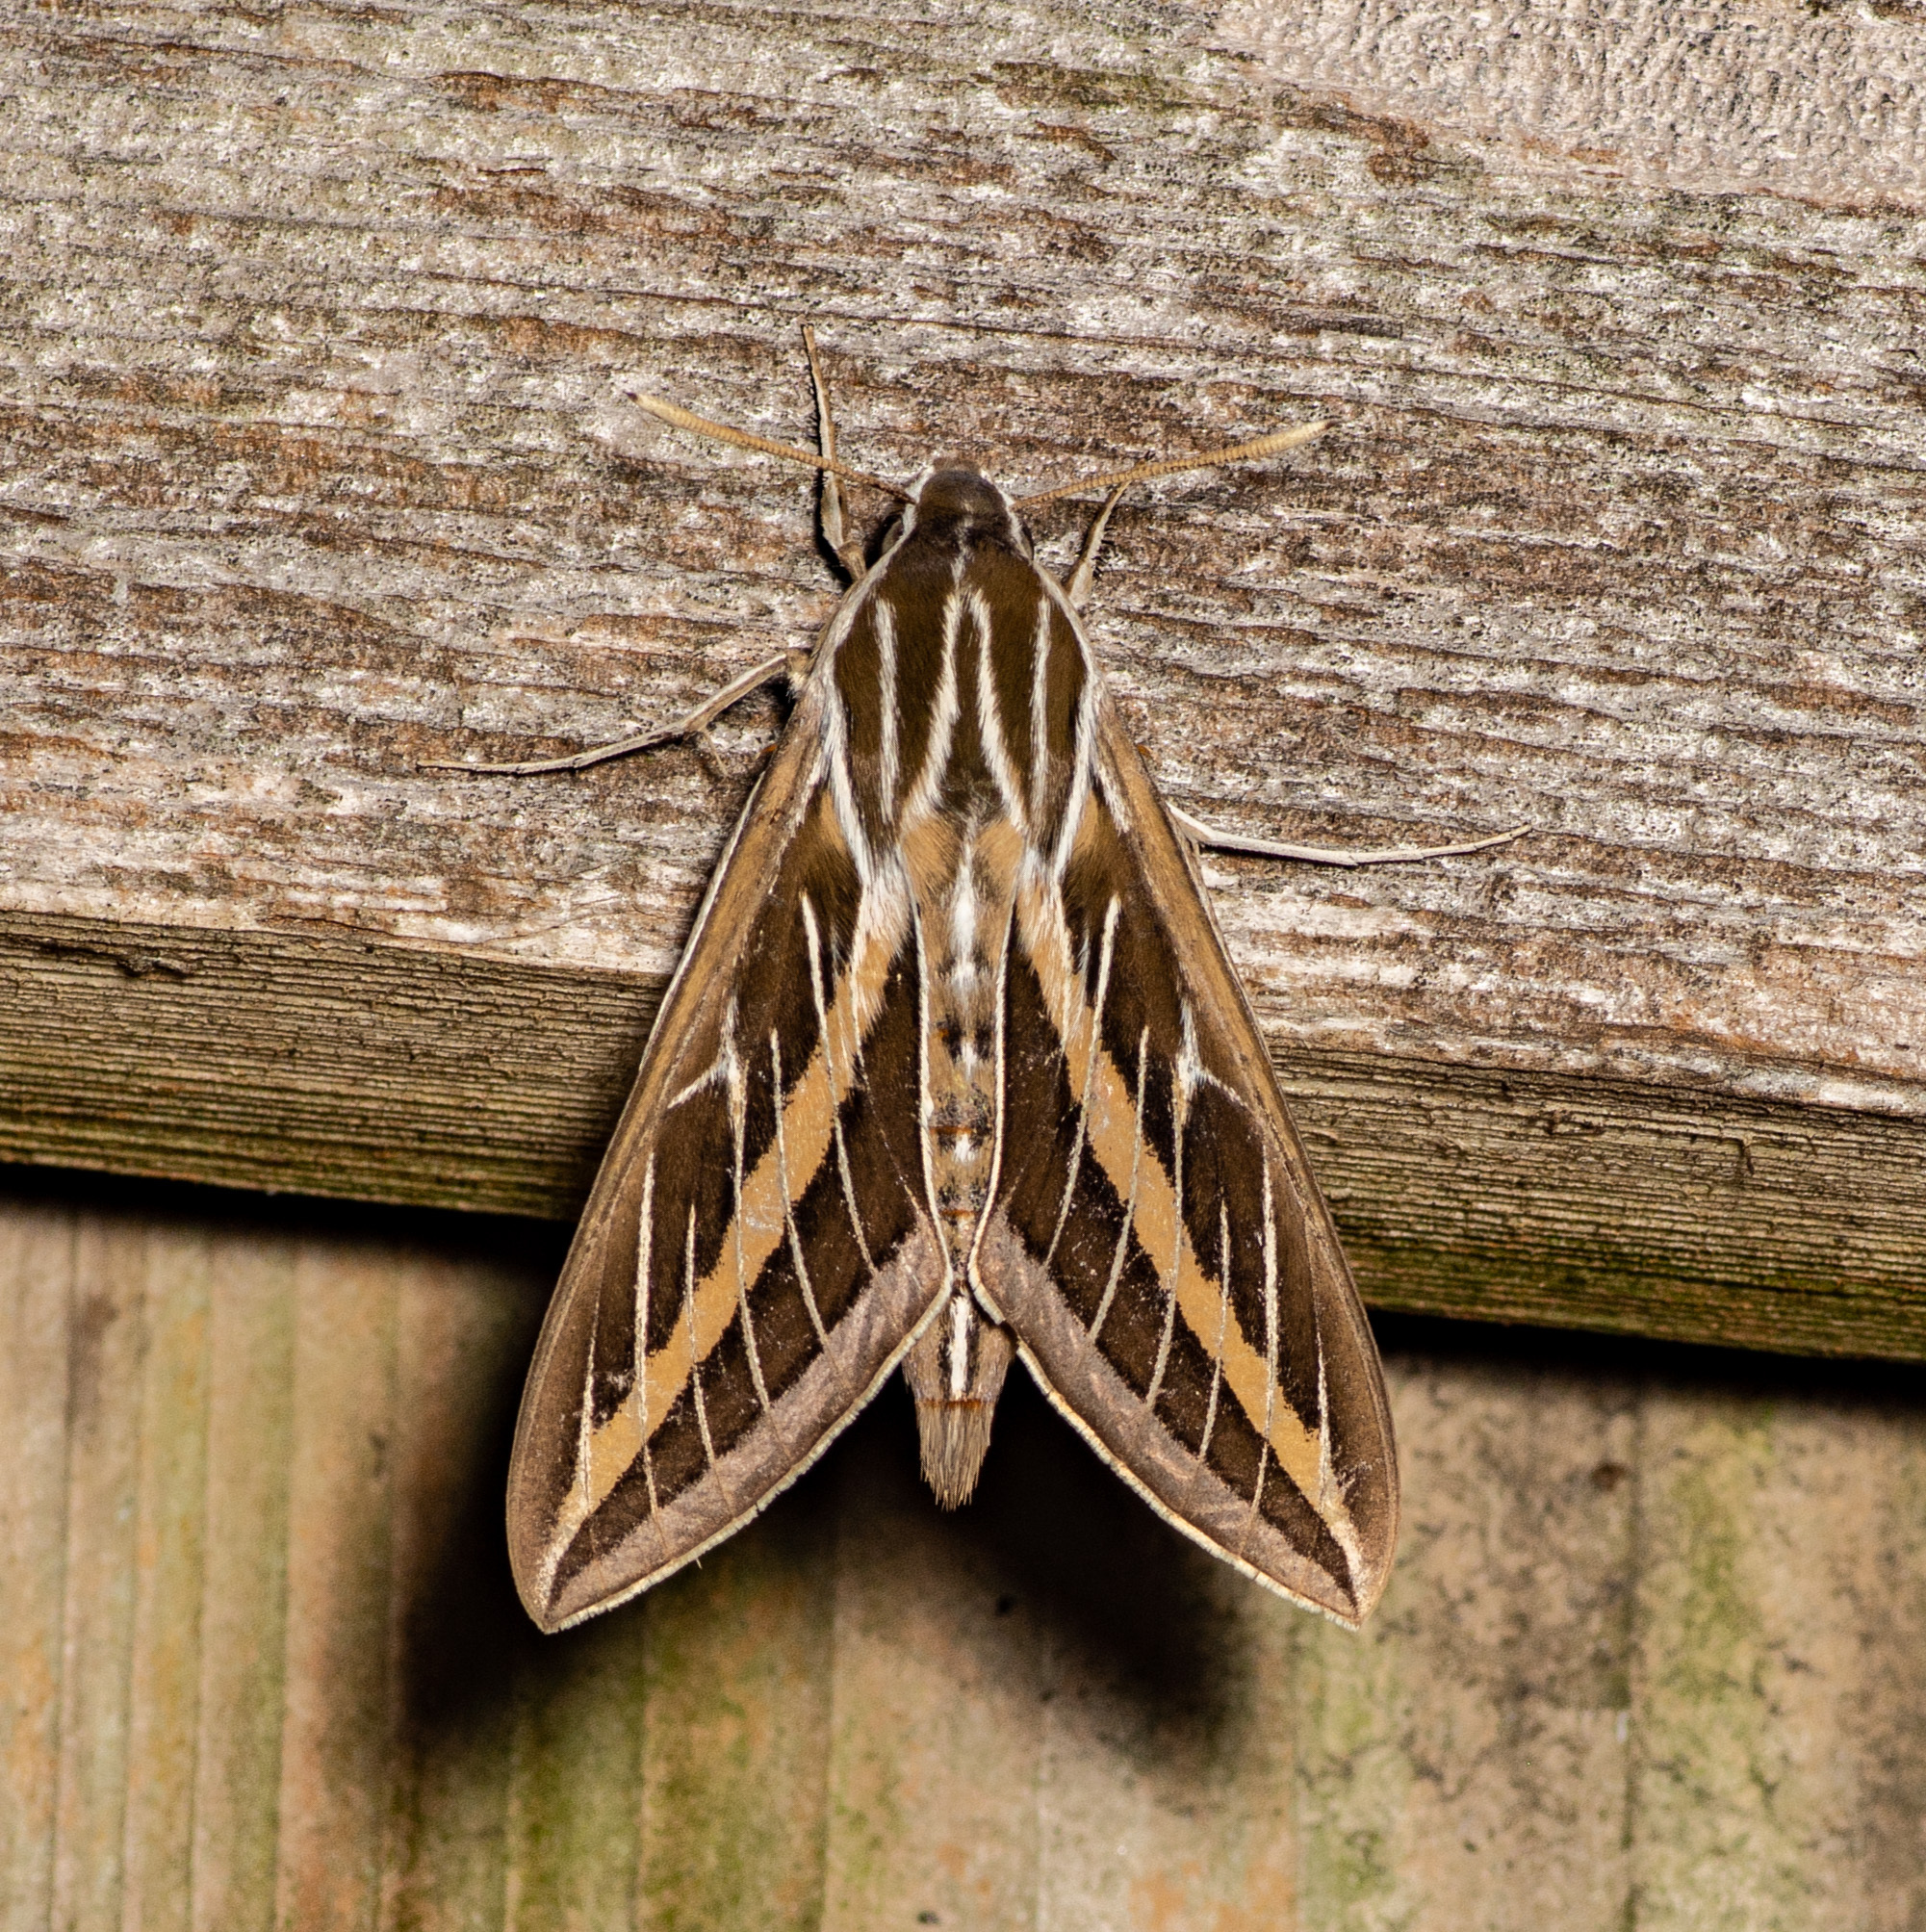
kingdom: Animalia
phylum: Arthropoda
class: Insecta
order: Lepidoptera
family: Sphingidae
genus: Hyles
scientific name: Hyles lineata
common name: White-lined sphinx
